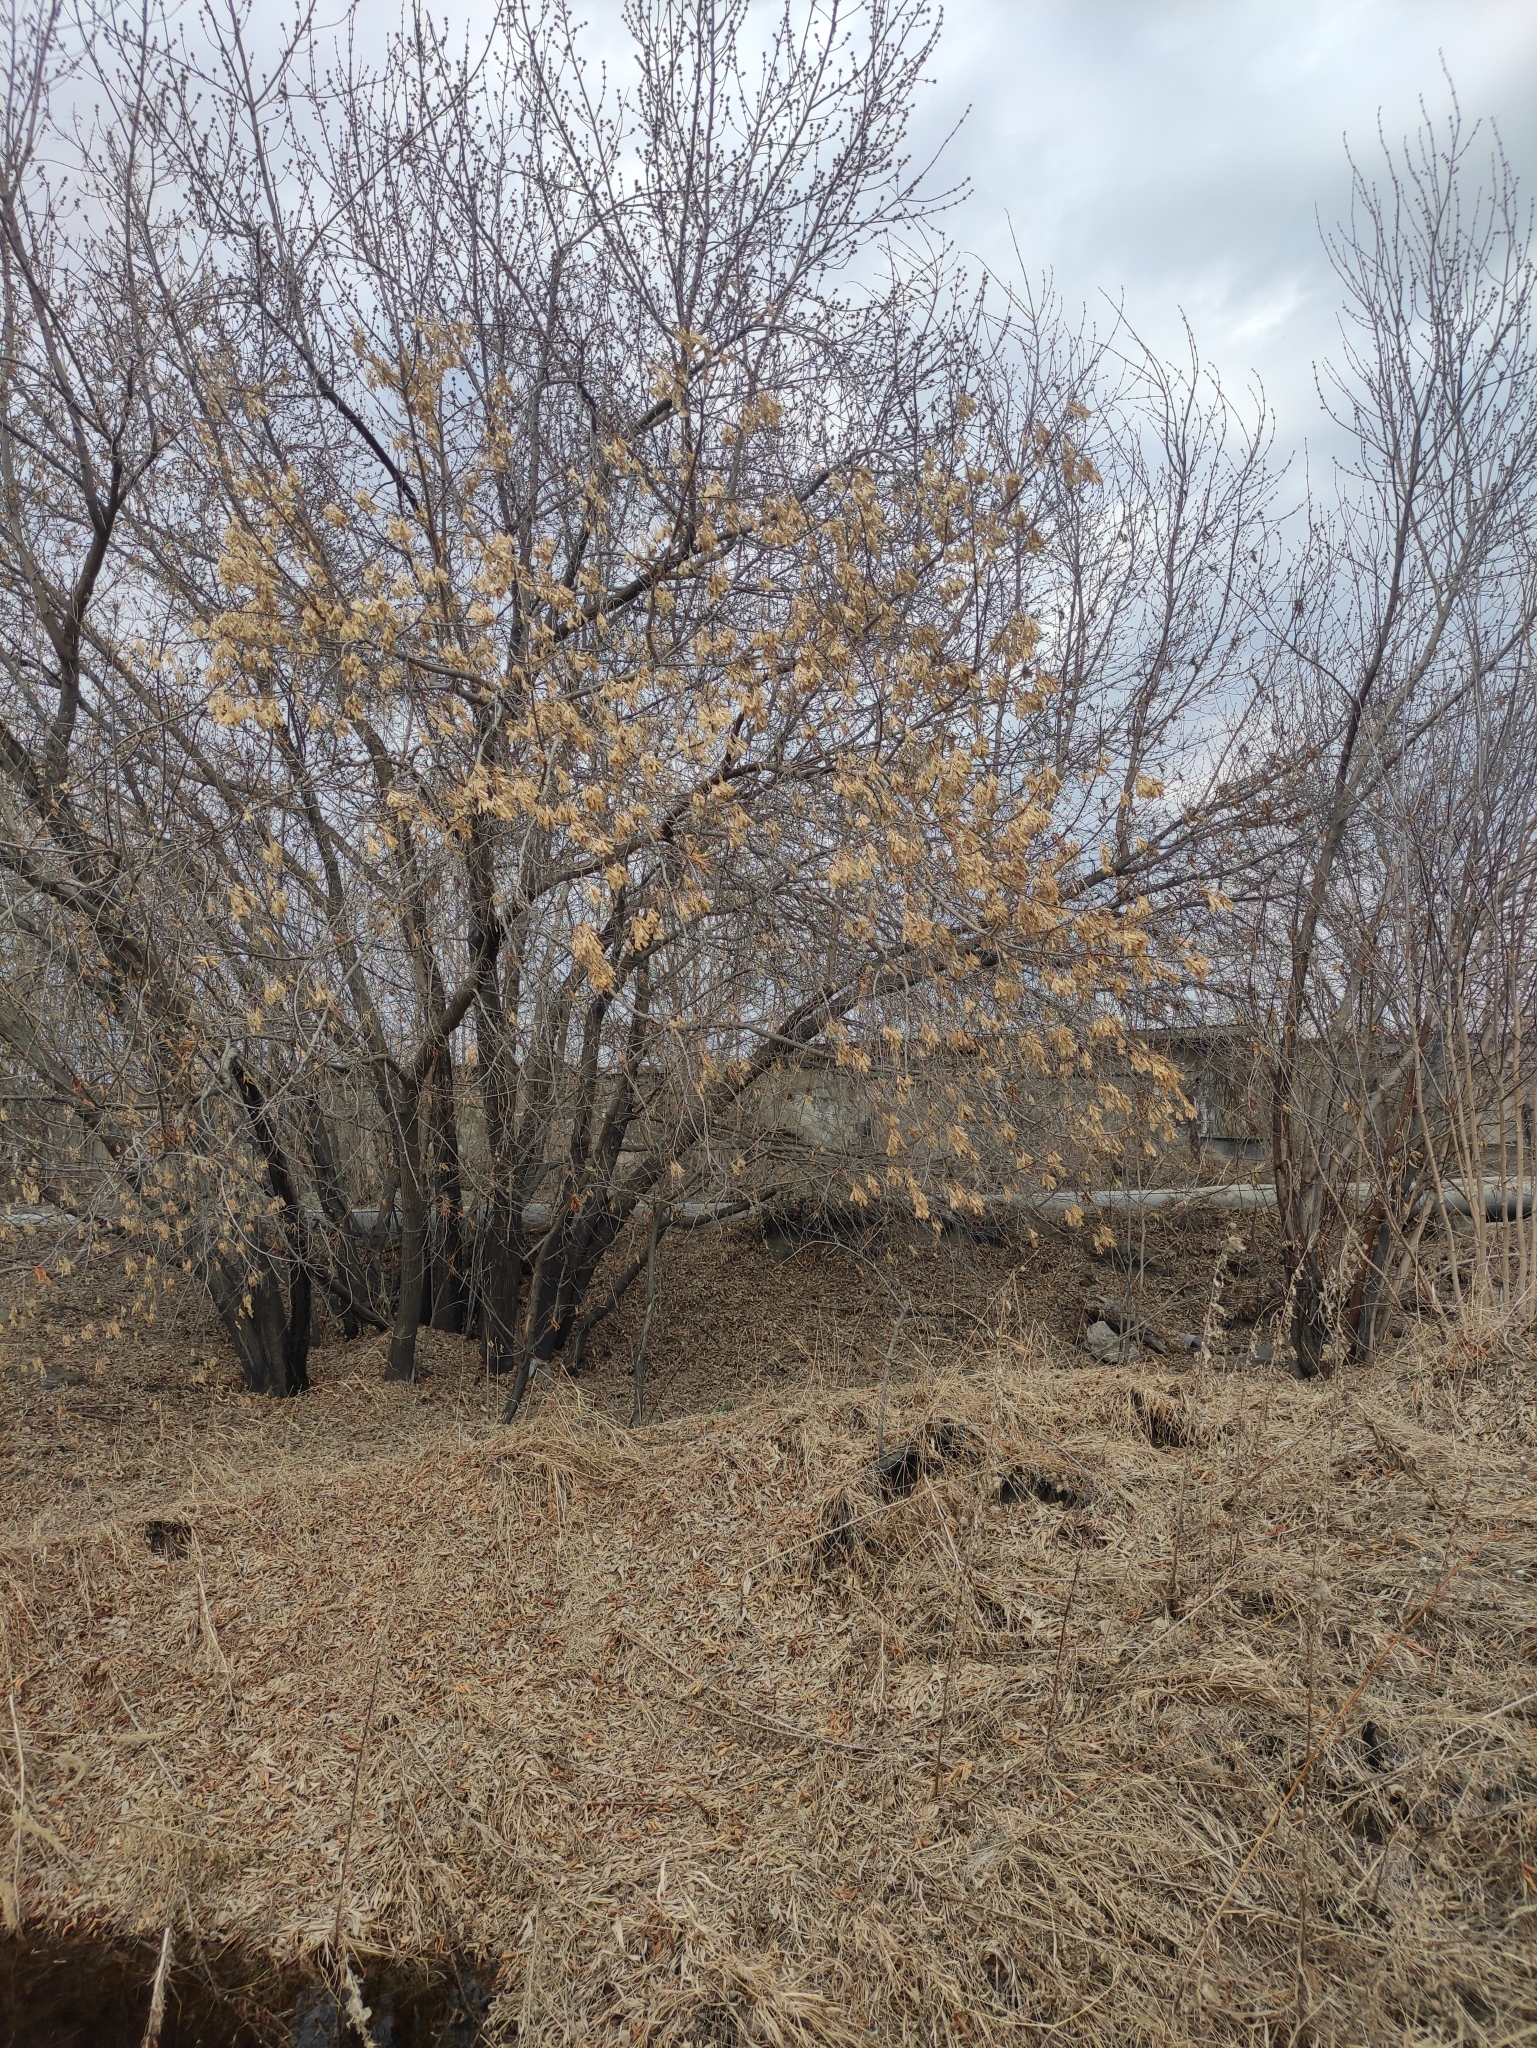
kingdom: Plantae
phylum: Tracheophyta
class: Magnoliopsida
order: Sapindales
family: Sapindaceae
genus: Acer
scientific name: Acer negundo
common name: Ashleaf maple
